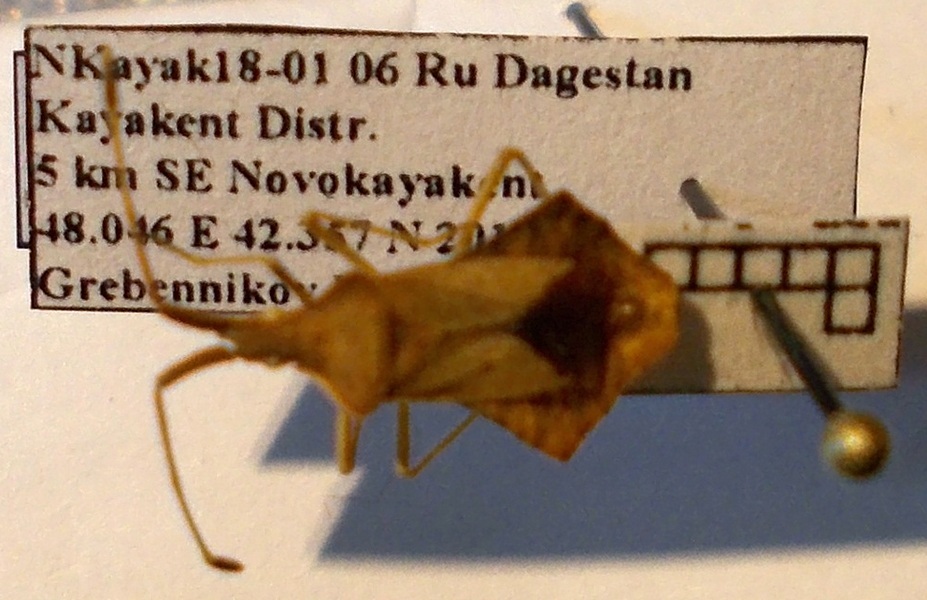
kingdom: Animalia
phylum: Arthropoda
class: Insecta
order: Hemiptera
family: Coreidae
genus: Syromastus
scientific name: Syromastus rhombeus
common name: Rhombic leatherbug
